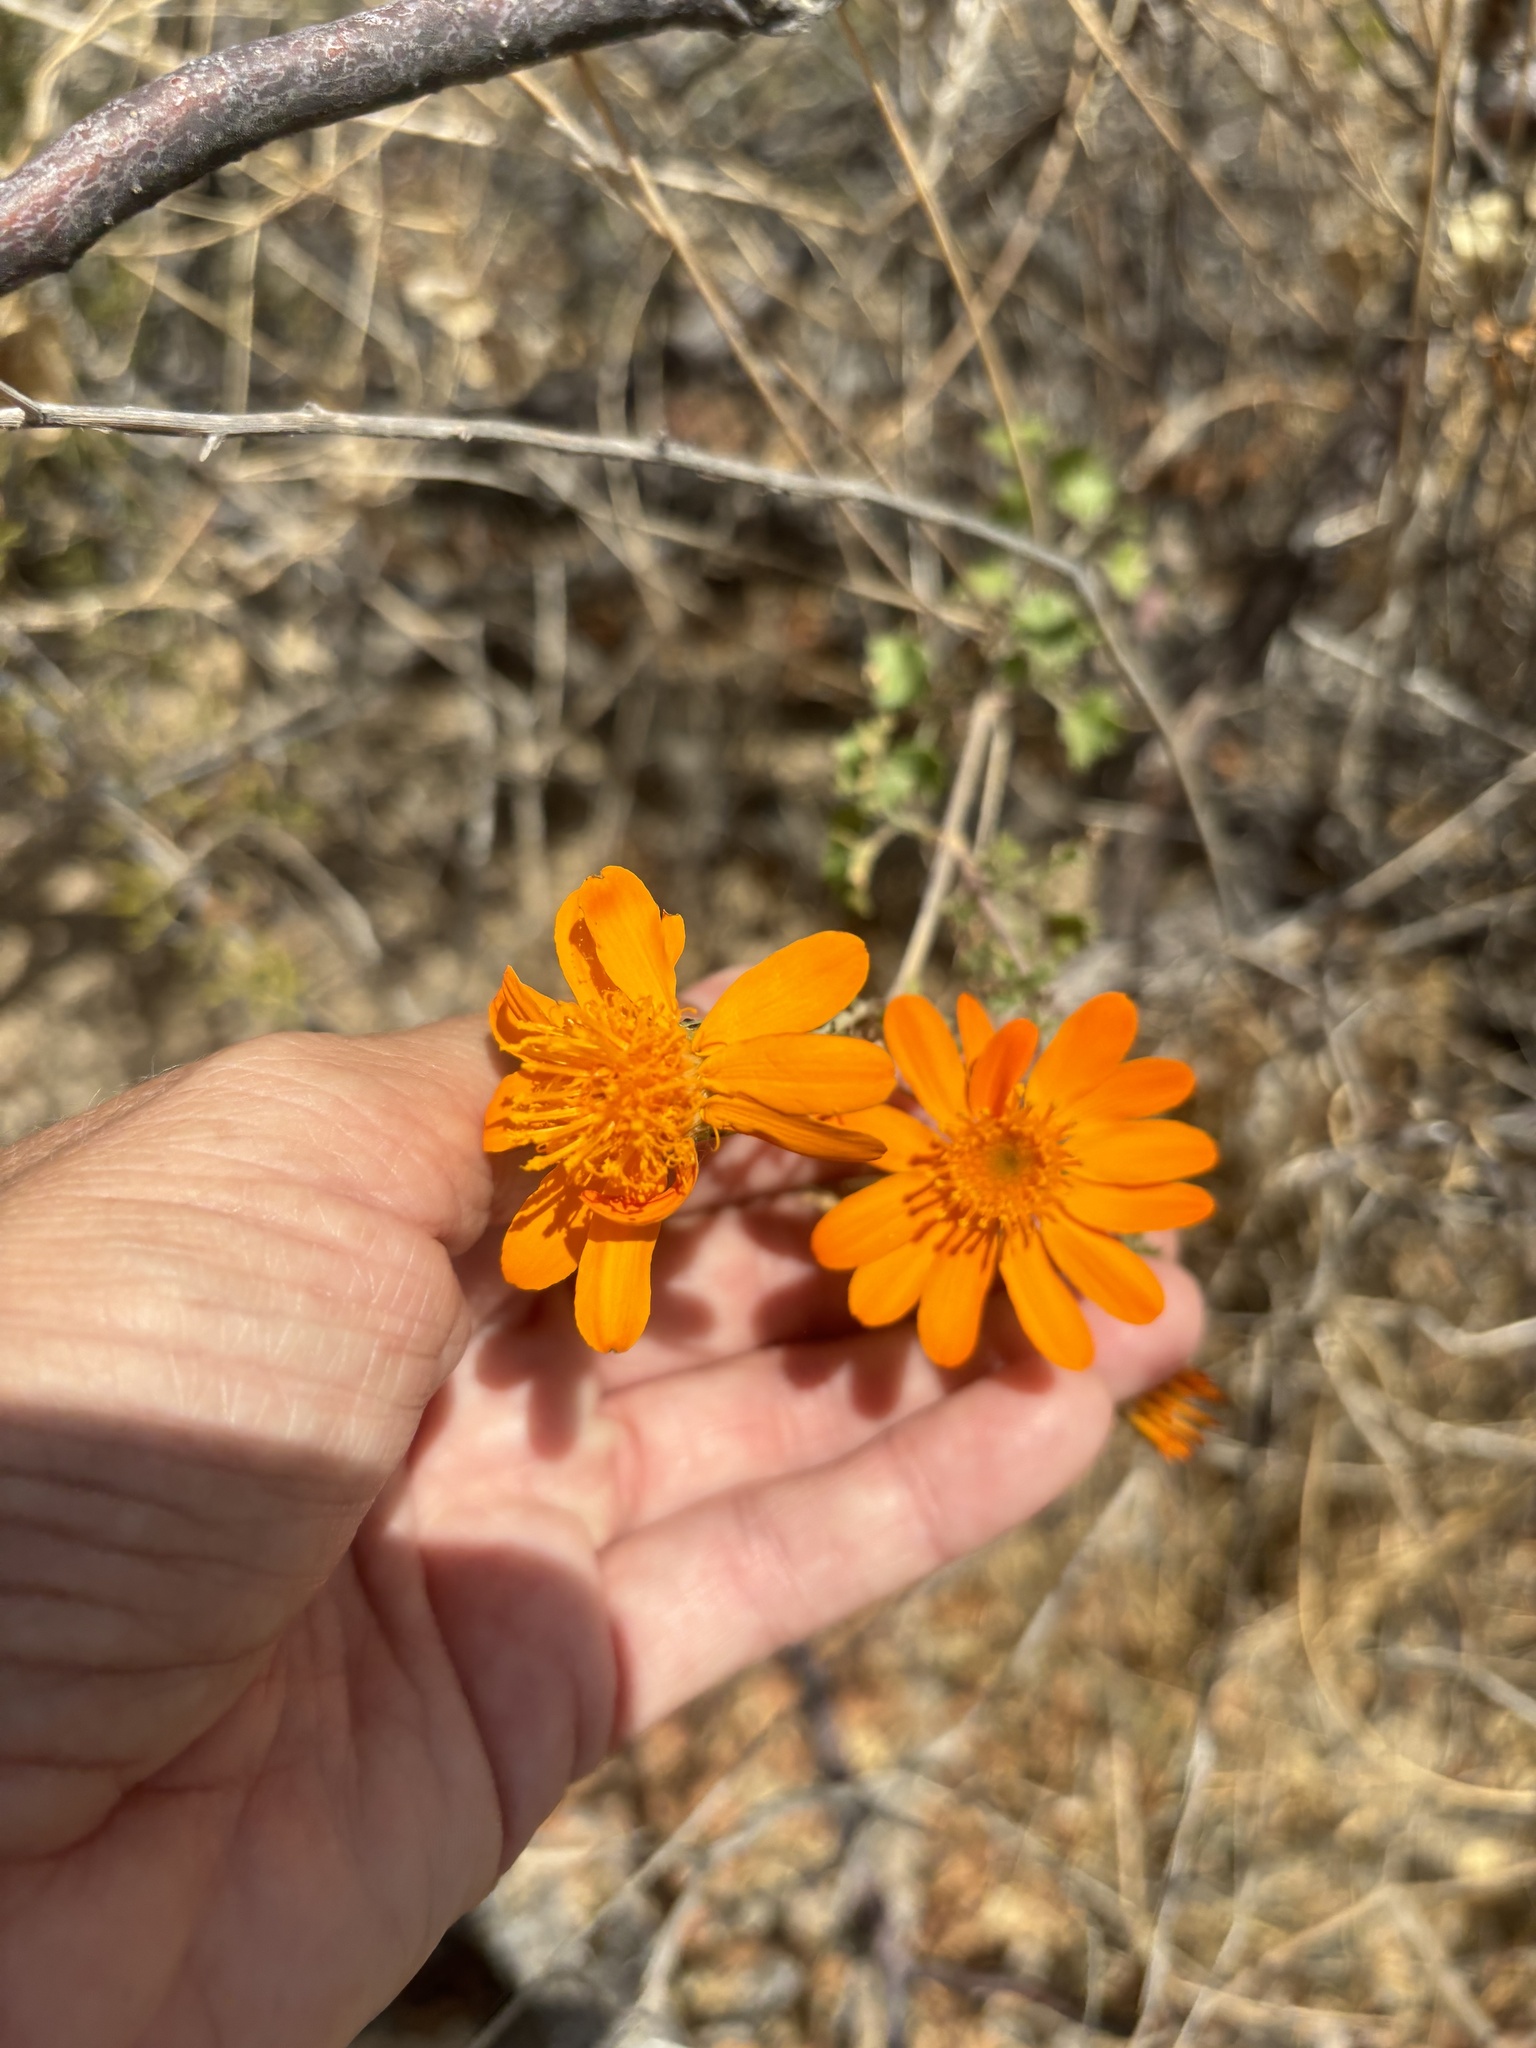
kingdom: Plantae
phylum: Tracheophyta
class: Magnoliopsida
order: Asterales
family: Asteraceae
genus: Adenophyllum
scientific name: Adenophyllum speciosum
